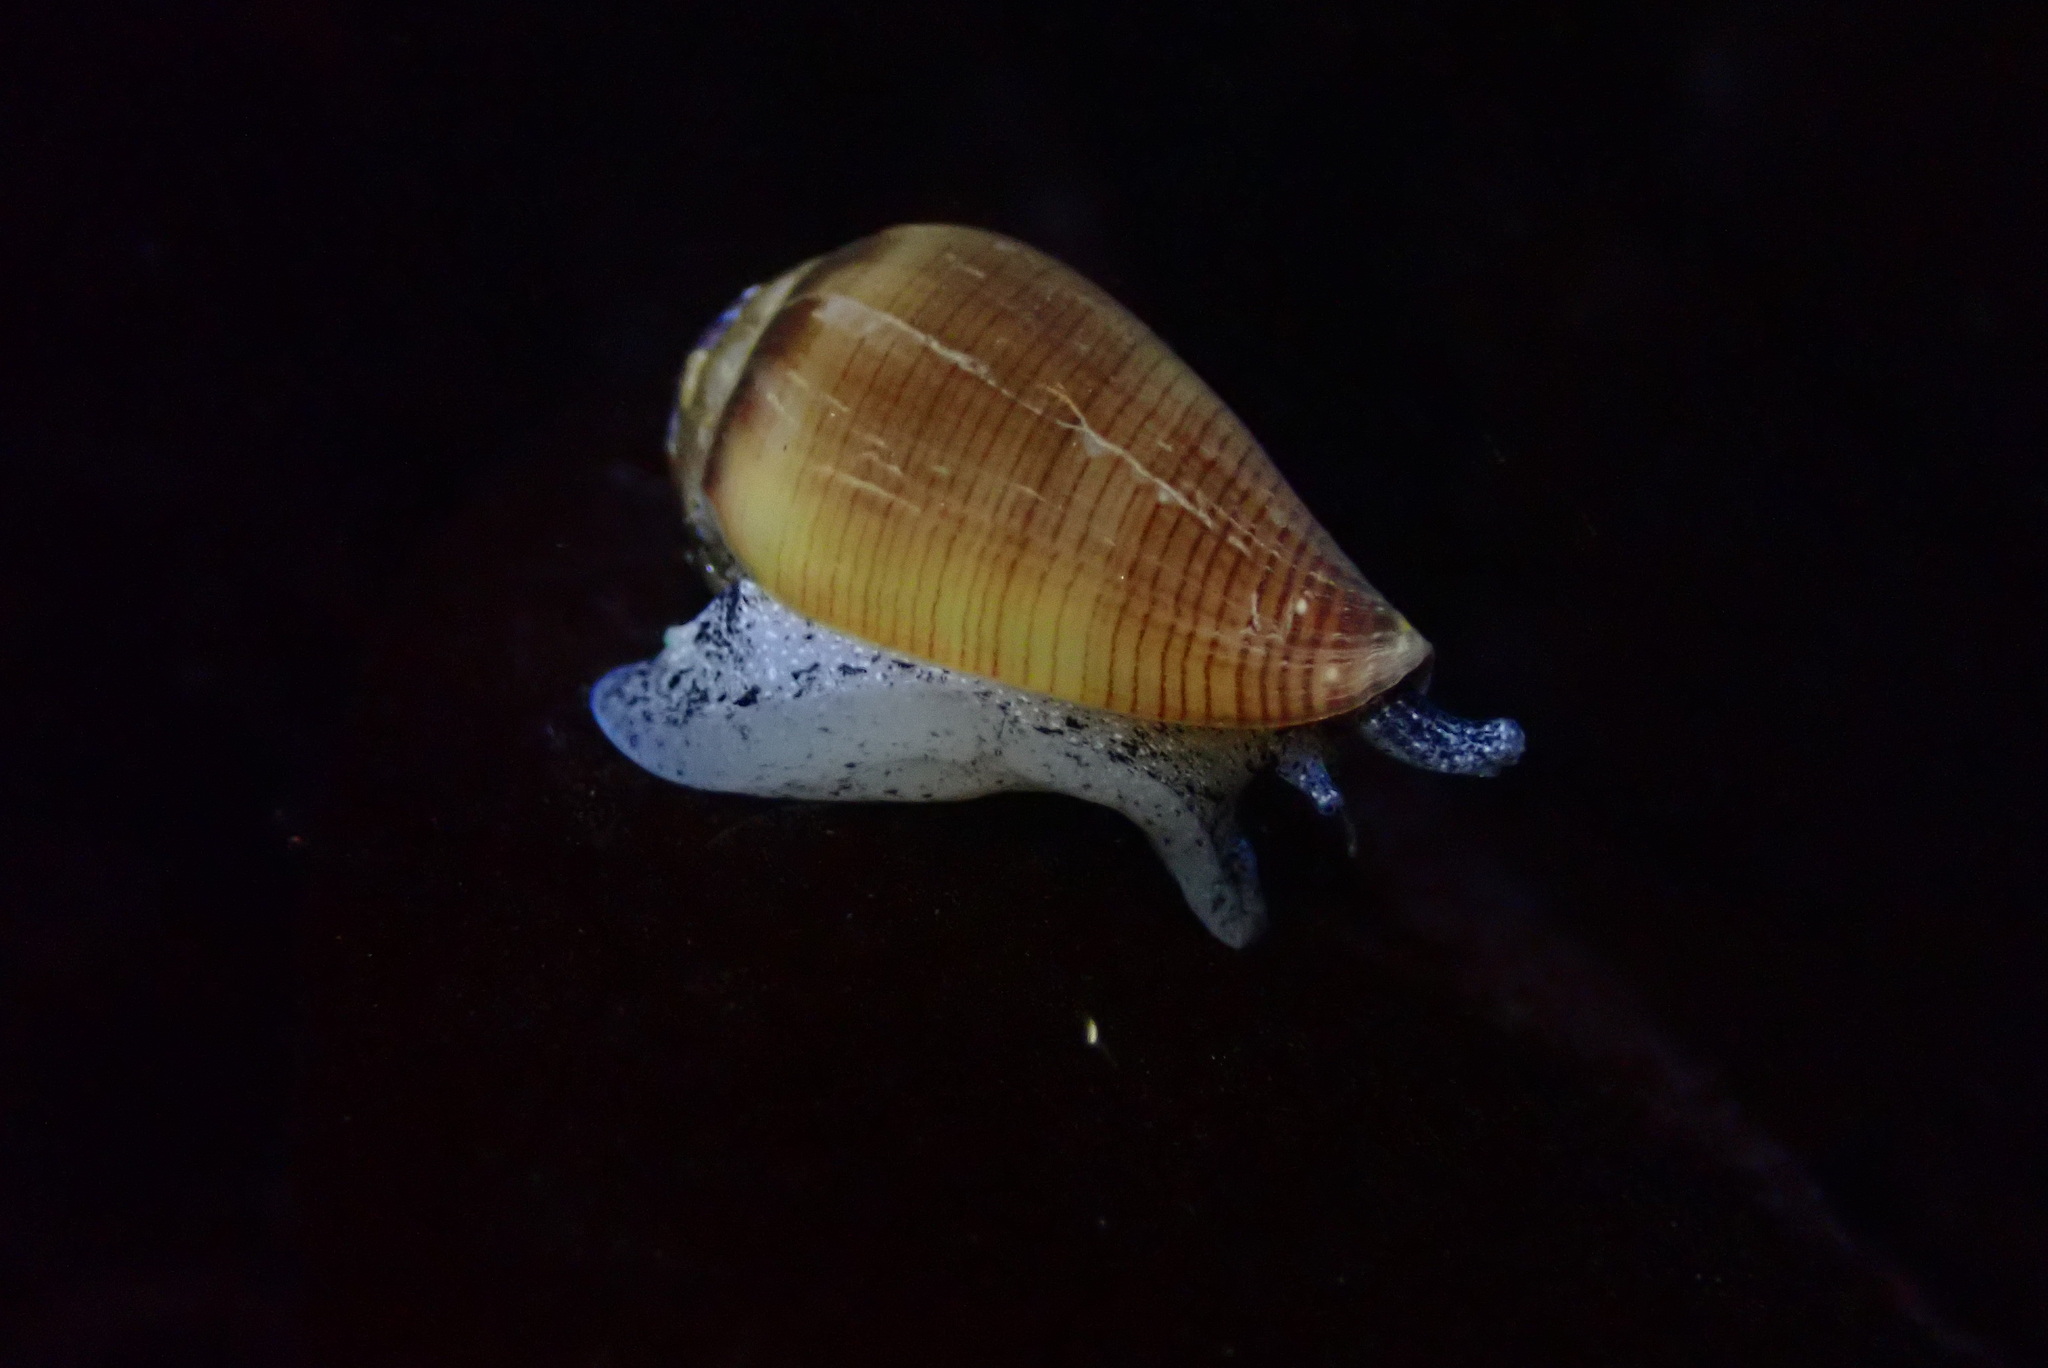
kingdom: Animalia
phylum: Mollusca
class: Gastropoda
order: Neogastropoda
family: Conidae
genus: Californiconus
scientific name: Californiconus californicus
